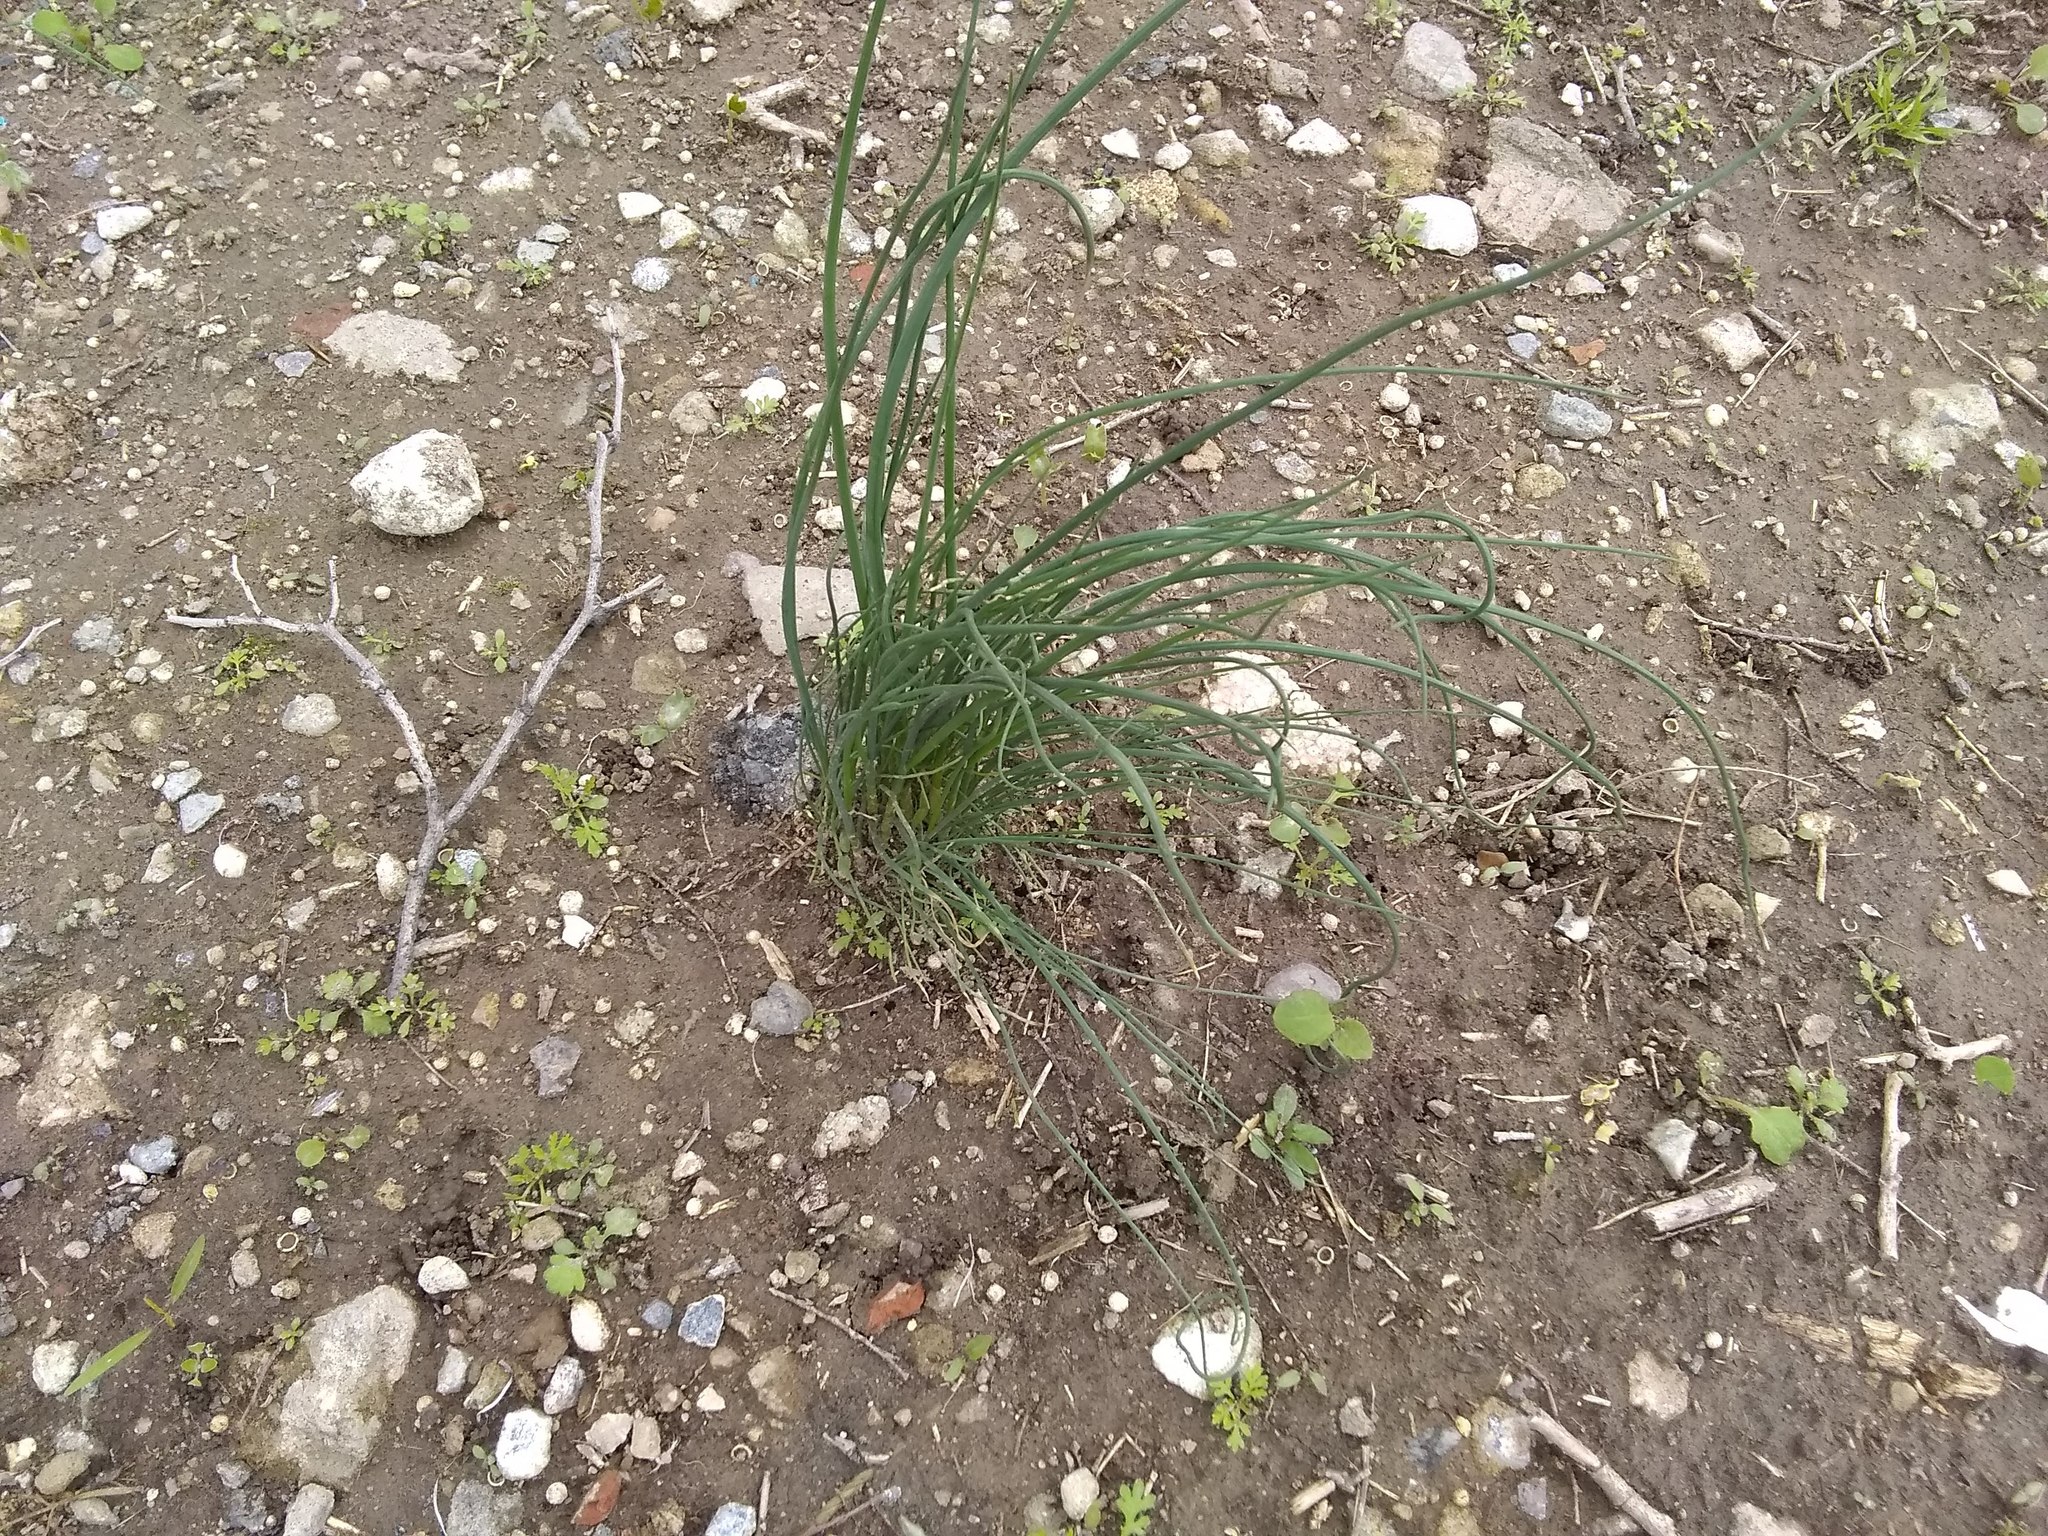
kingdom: Plantae
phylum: Tracheophyta
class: Liliopsida
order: Asparagales
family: Amaryllidaceae
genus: Allium
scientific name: Allium vineale
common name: Crow garlic
